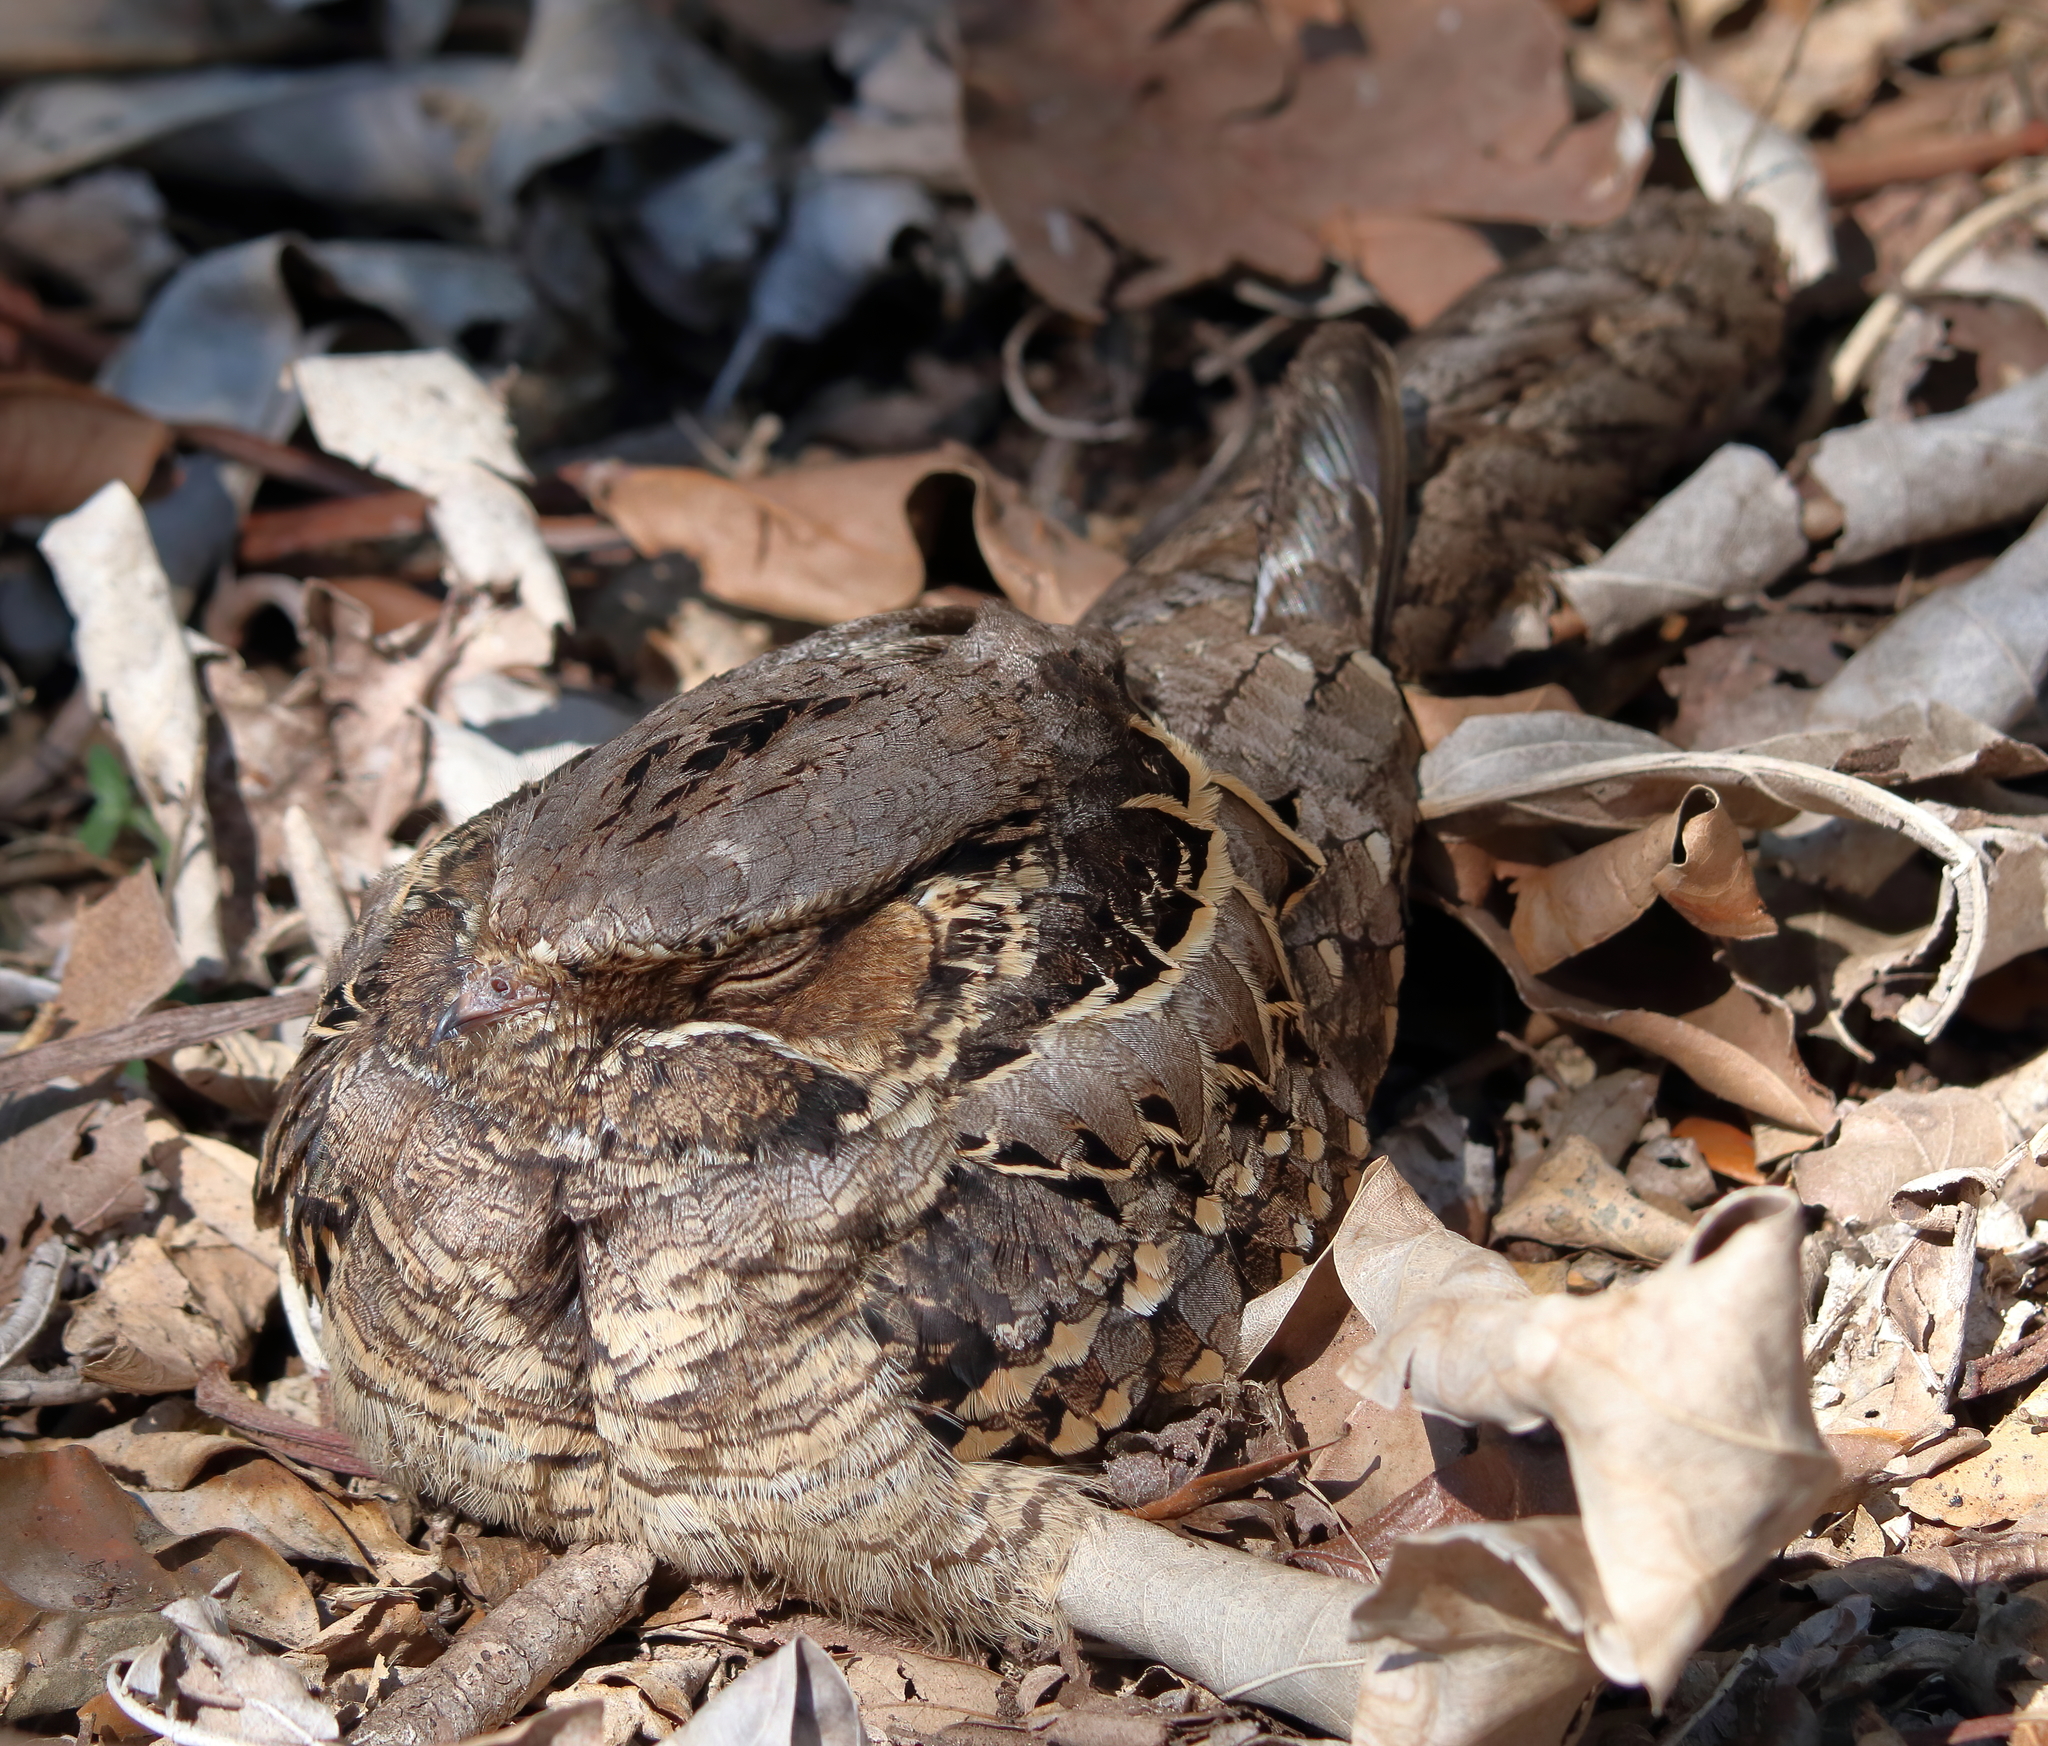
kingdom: Animalia
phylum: Chordata
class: Aves
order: Caprimulgiformes
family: Caprimulgidae
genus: Nyctidromus
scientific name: Nyctidromus albicollis
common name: Pauraque
